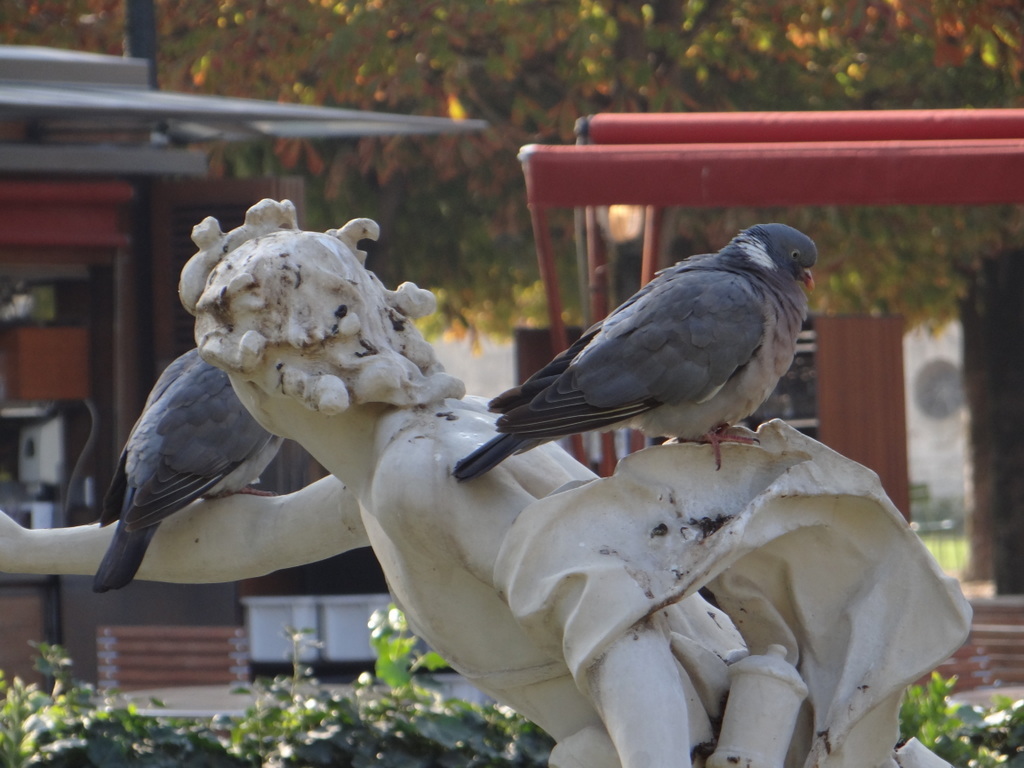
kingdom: Animalia
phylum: Chordata
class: Aves
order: Columbiformes
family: Columbidae
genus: Columba
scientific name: Columba palumbus
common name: Common wood pigeon
